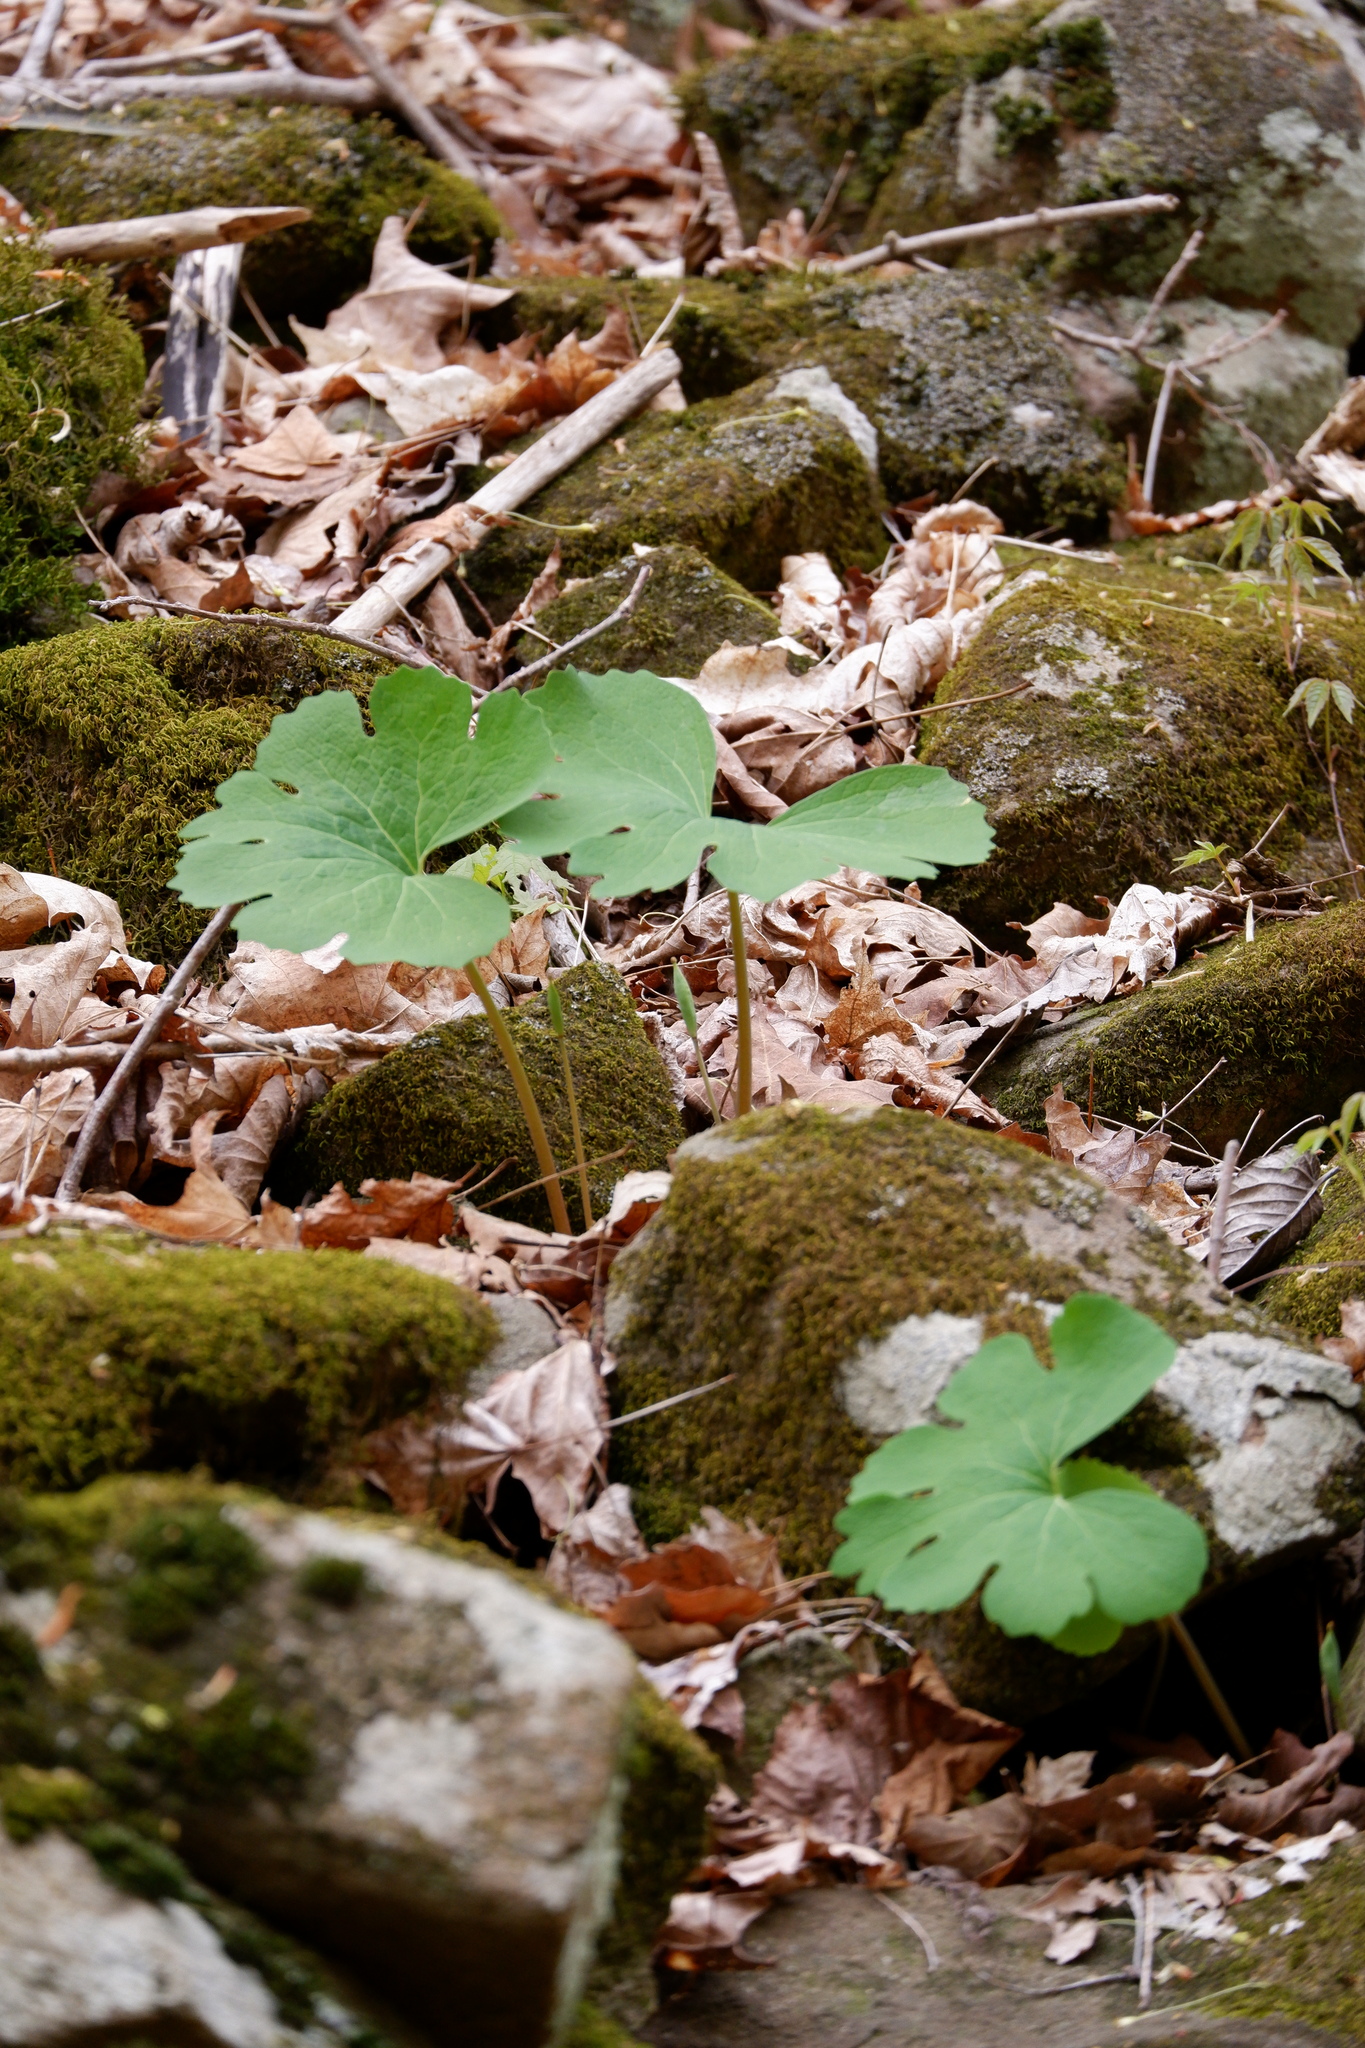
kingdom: Plantae
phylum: Tracheophyta
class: Magnoliopsida
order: Ranunculales
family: Papaveraceae
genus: Sanguinaria
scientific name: Sanguinaria canadensis
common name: Bloodroot
